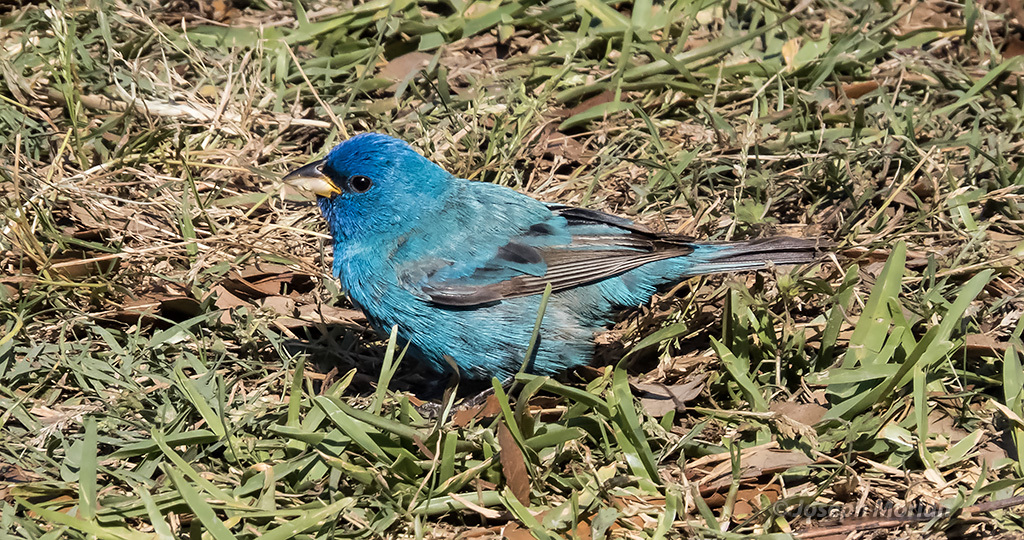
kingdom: Animalia
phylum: Chordata
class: Aves
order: Passeriformes
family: Cardinalidae
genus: Passerina
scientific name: Passerina cyanea
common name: Indigo bunting
